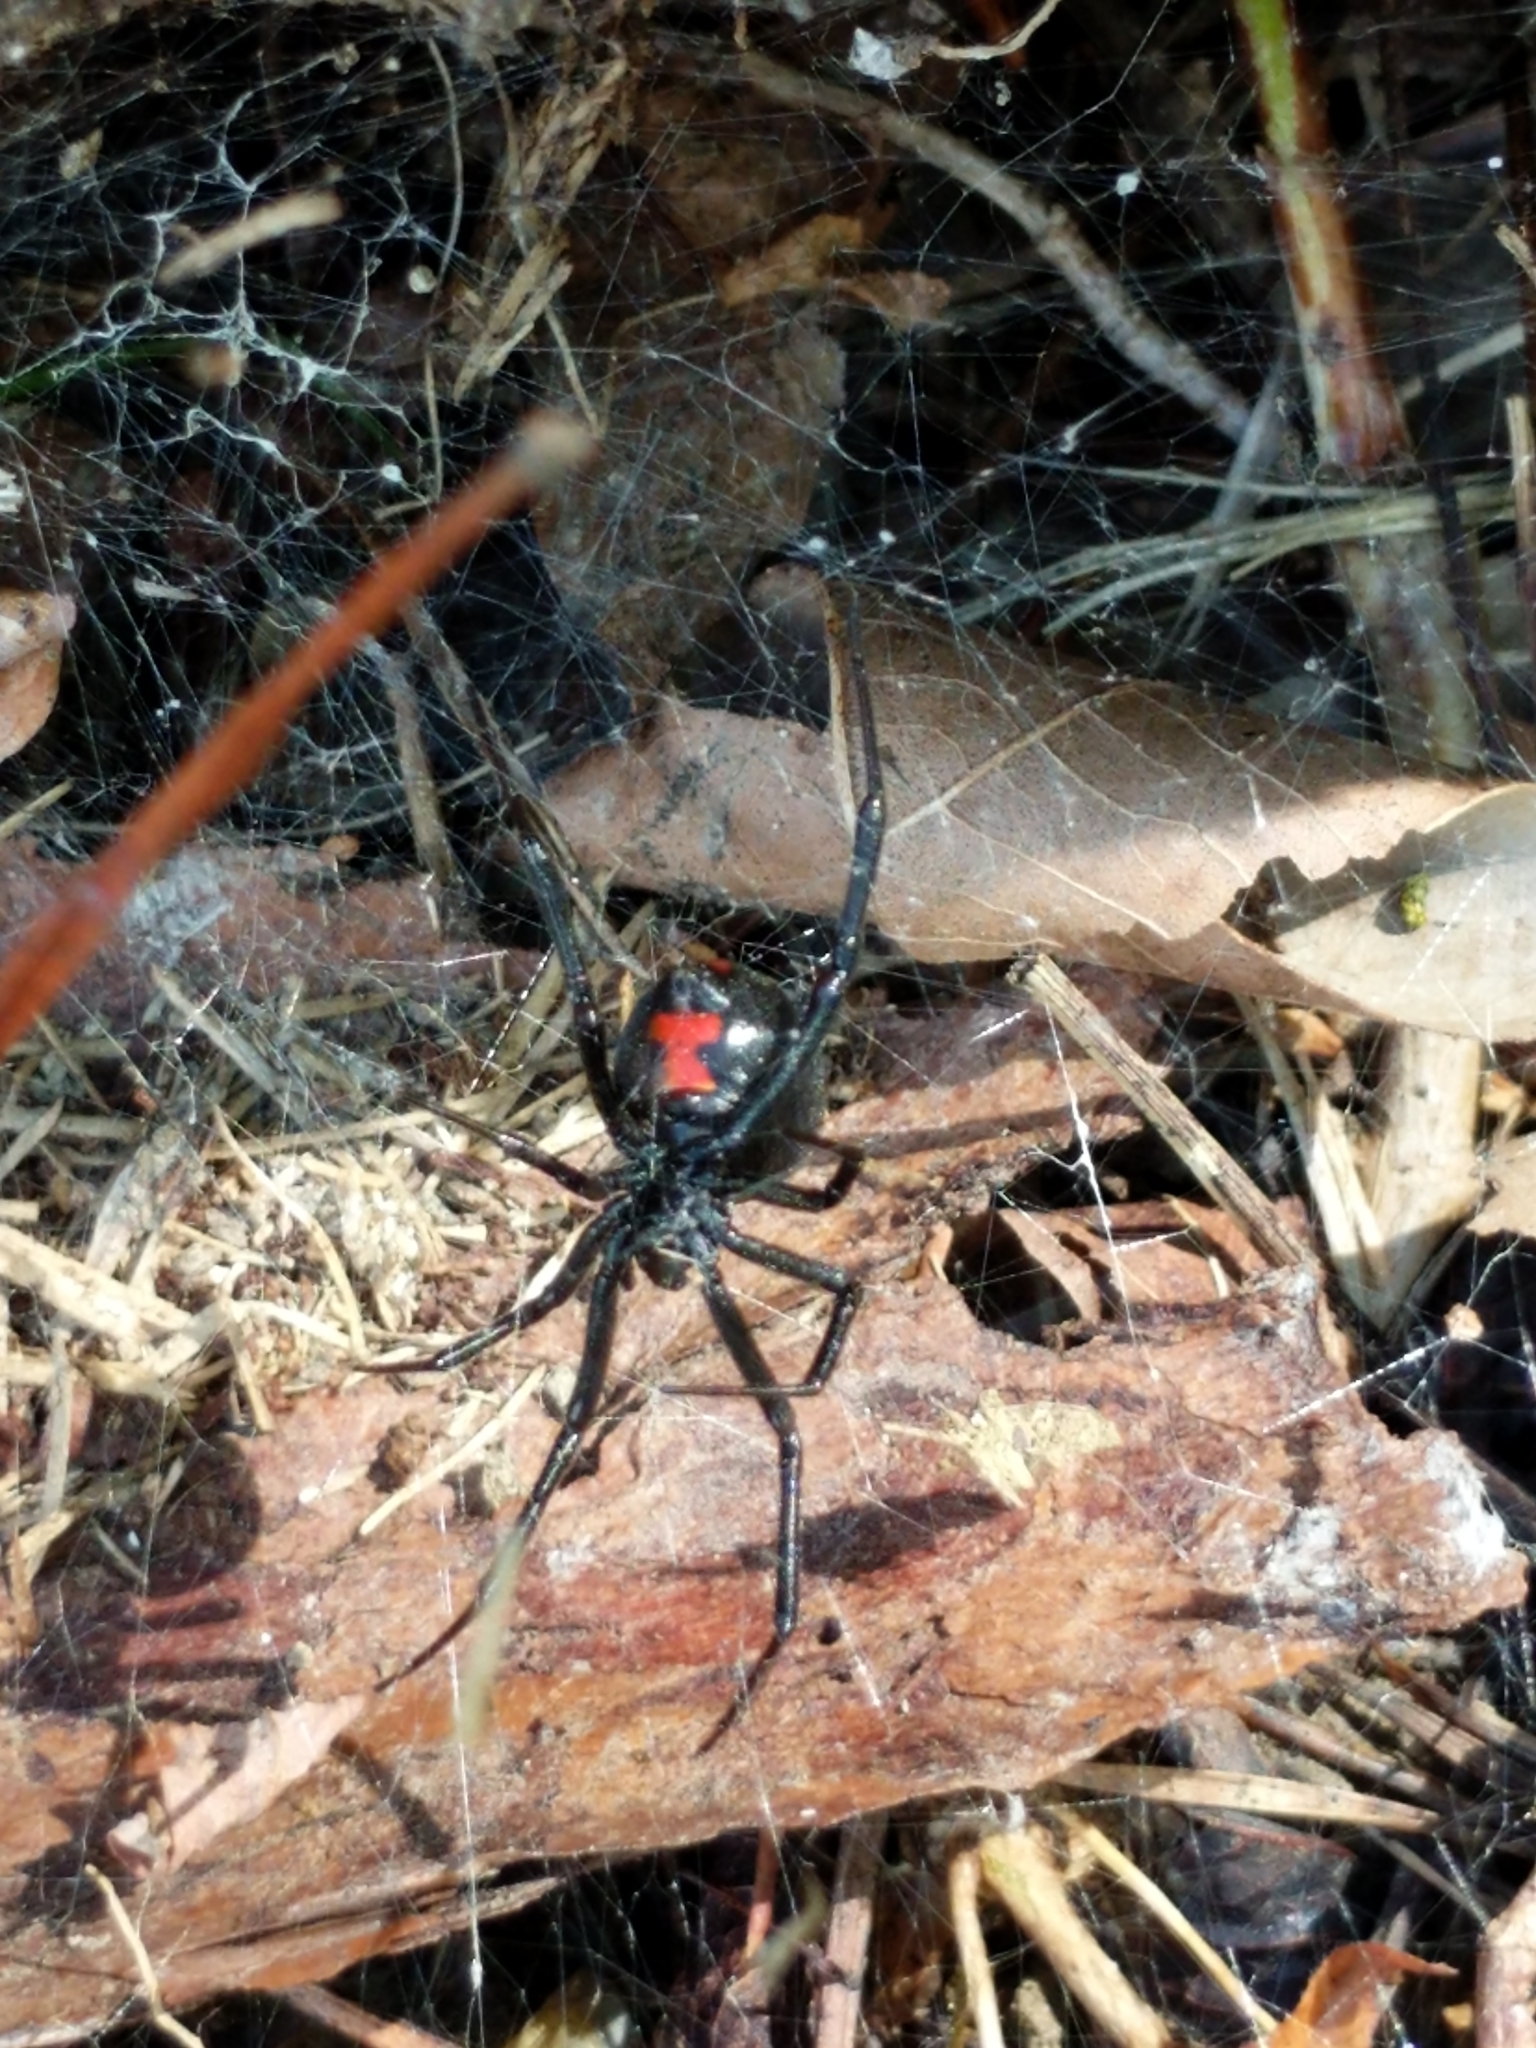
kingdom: Animalia
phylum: Arthropoda
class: Arachnida
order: Araneae
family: Theridiidae
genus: Latrodectus
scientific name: Latrodectus mactans
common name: Cobweb spiders
